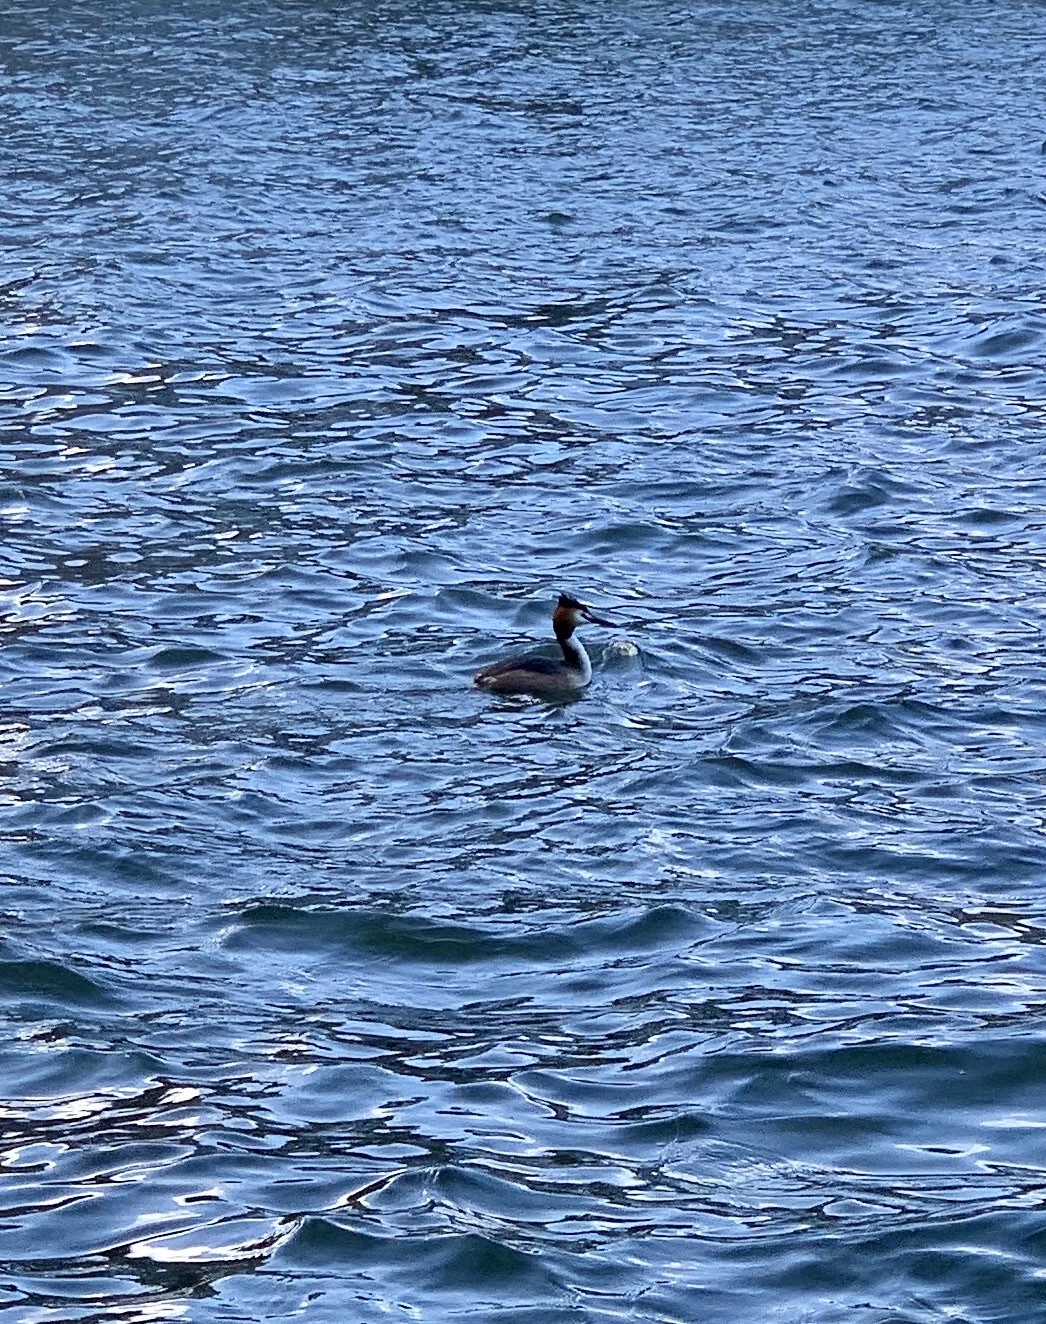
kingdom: Animalia
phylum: Chordata
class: Aves
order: Podicipediformes
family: Podicipedidae
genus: Podiceps
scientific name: Podiceps cristatus
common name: Great crested grebe
